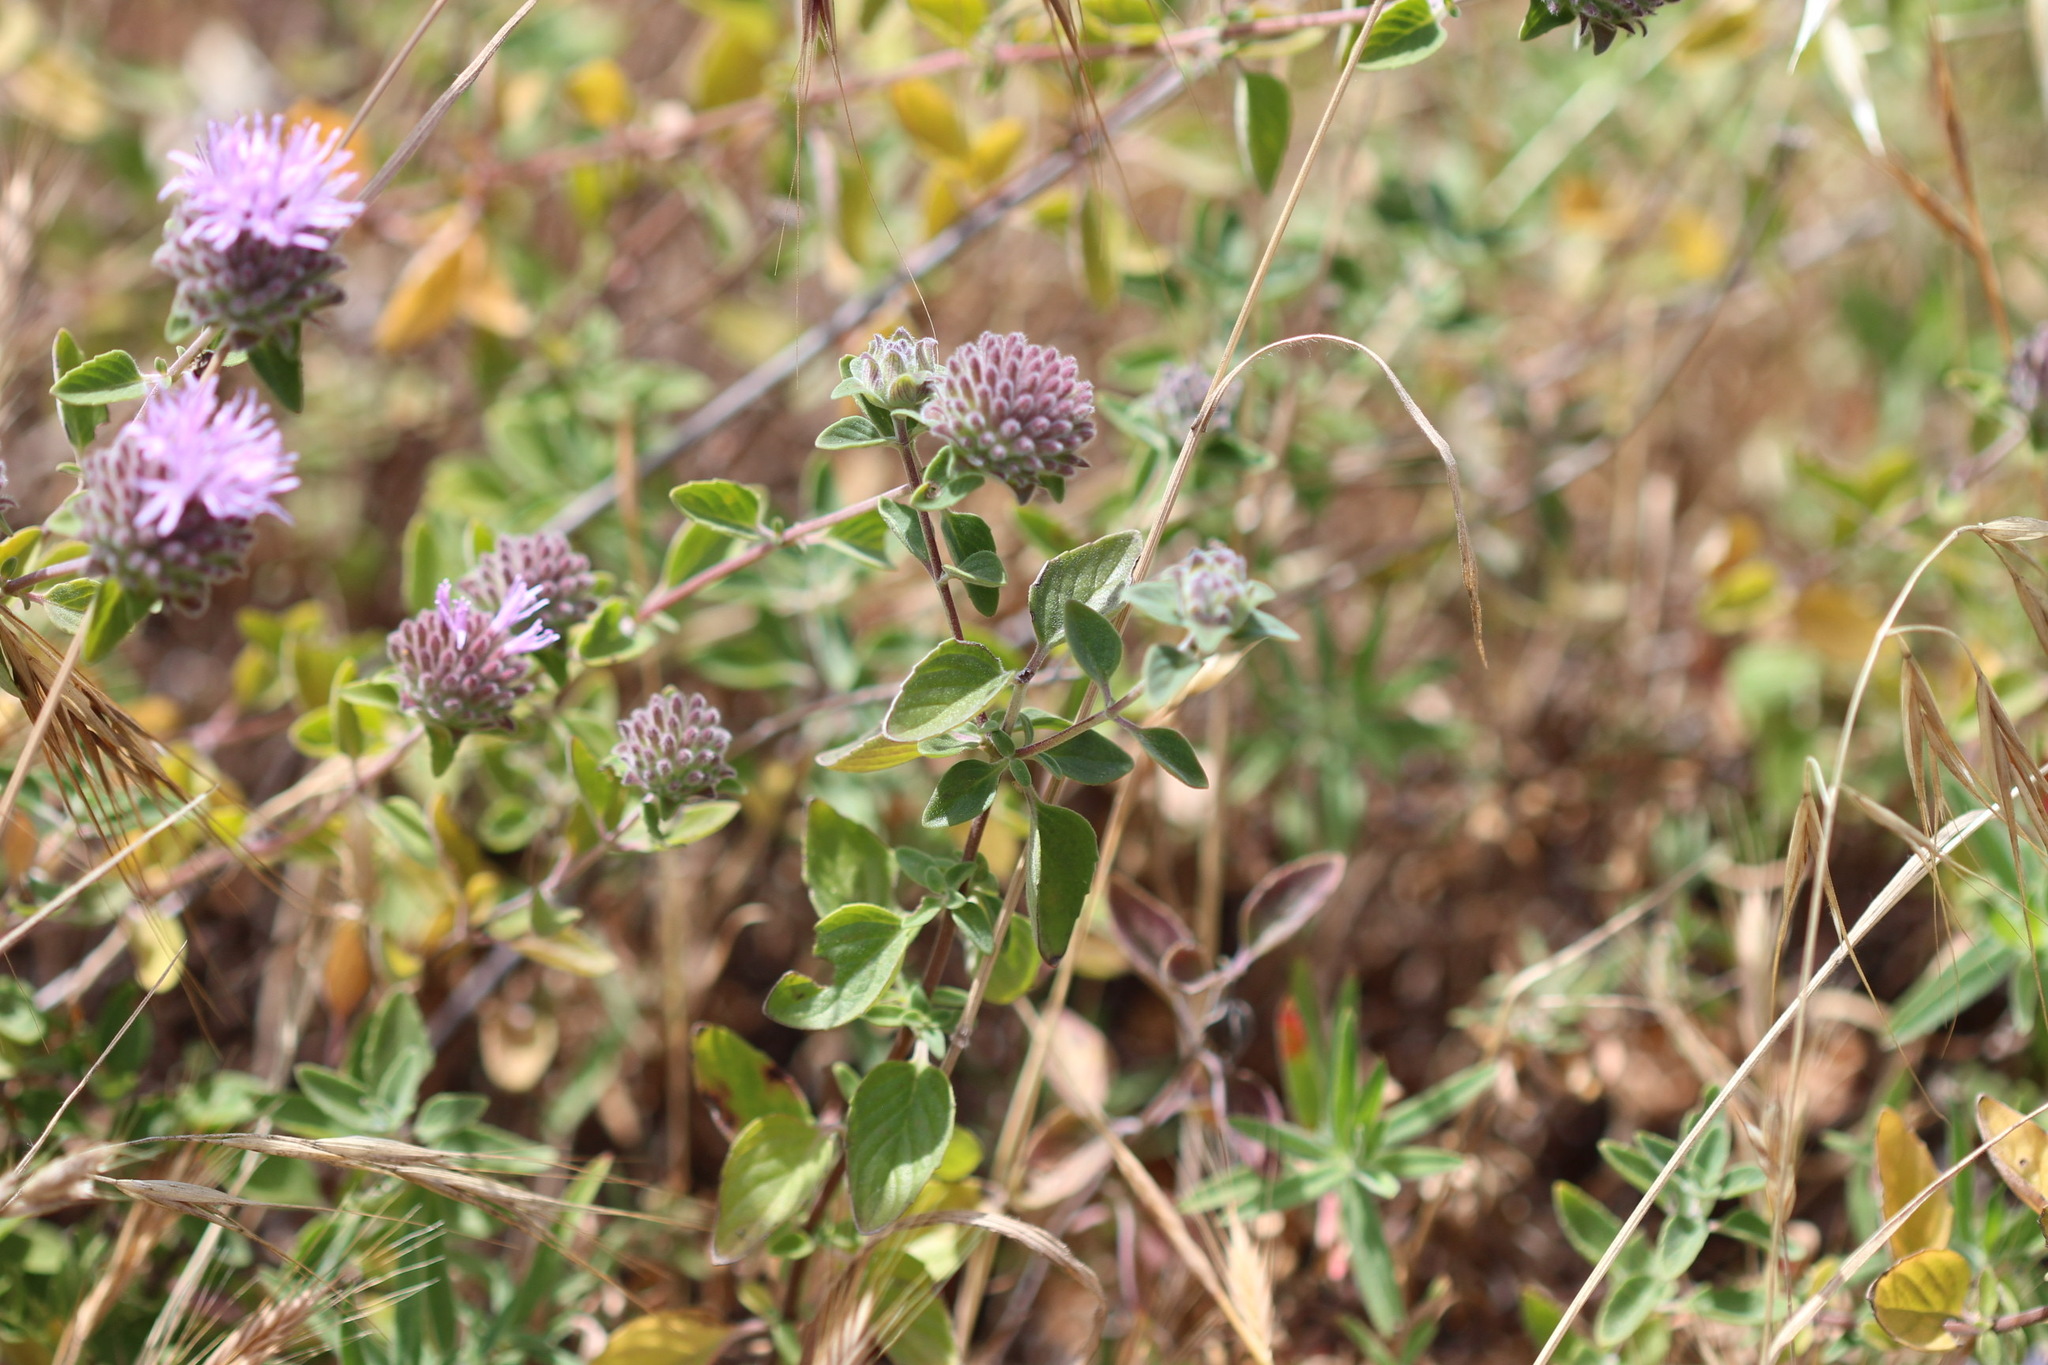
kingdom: Plantae
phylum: Tracheophyta
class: Magnoliopsida
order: Lamiales
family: Lamiaceae
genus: Monardella
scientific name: Monardella odoratissima
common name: Pacific monardella
